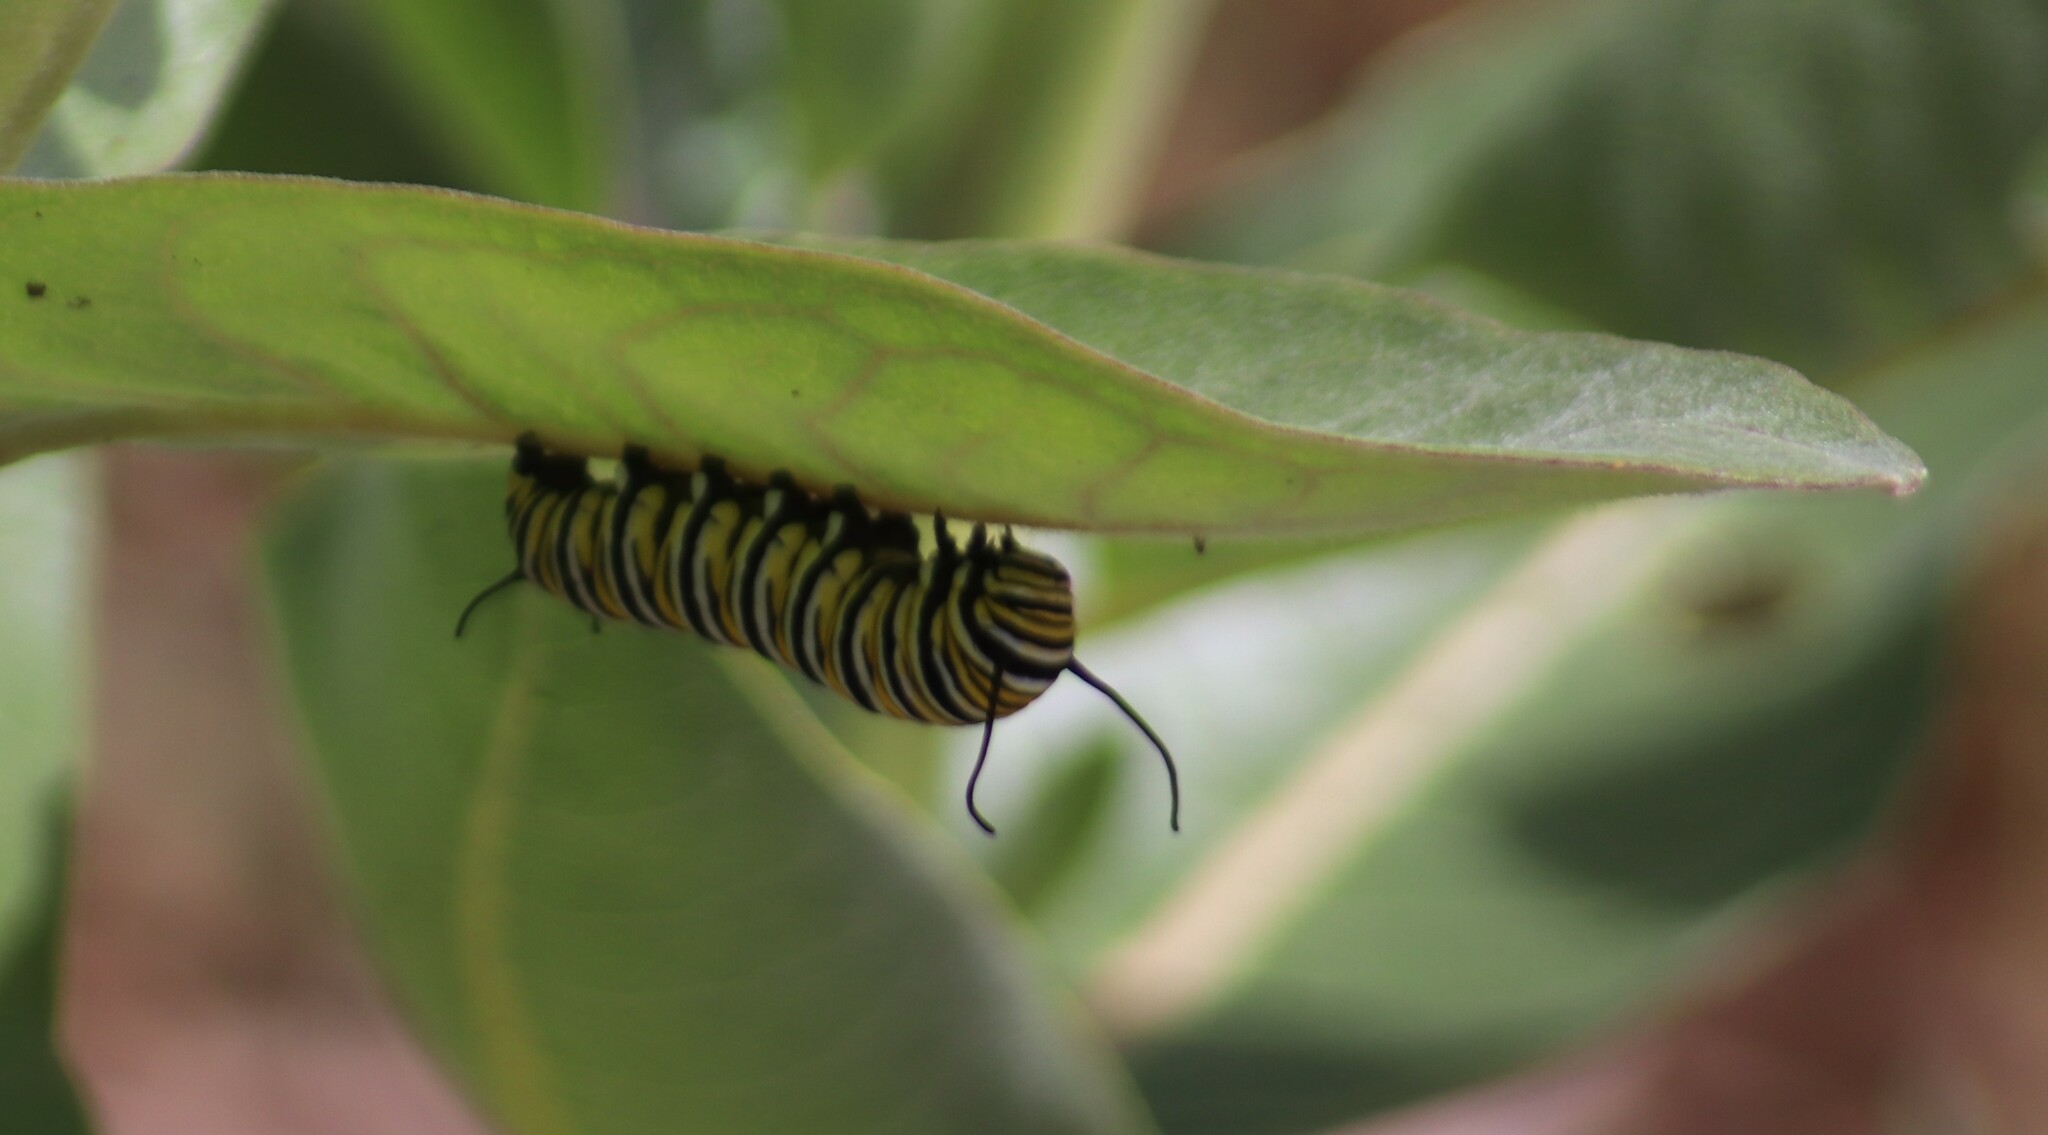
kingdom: Animalia
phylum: Arthropoda
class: Insecta
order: Lepidoptera
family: Nymphalidae
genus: Danaus
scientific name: Danaus plexippus
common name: Monarch
